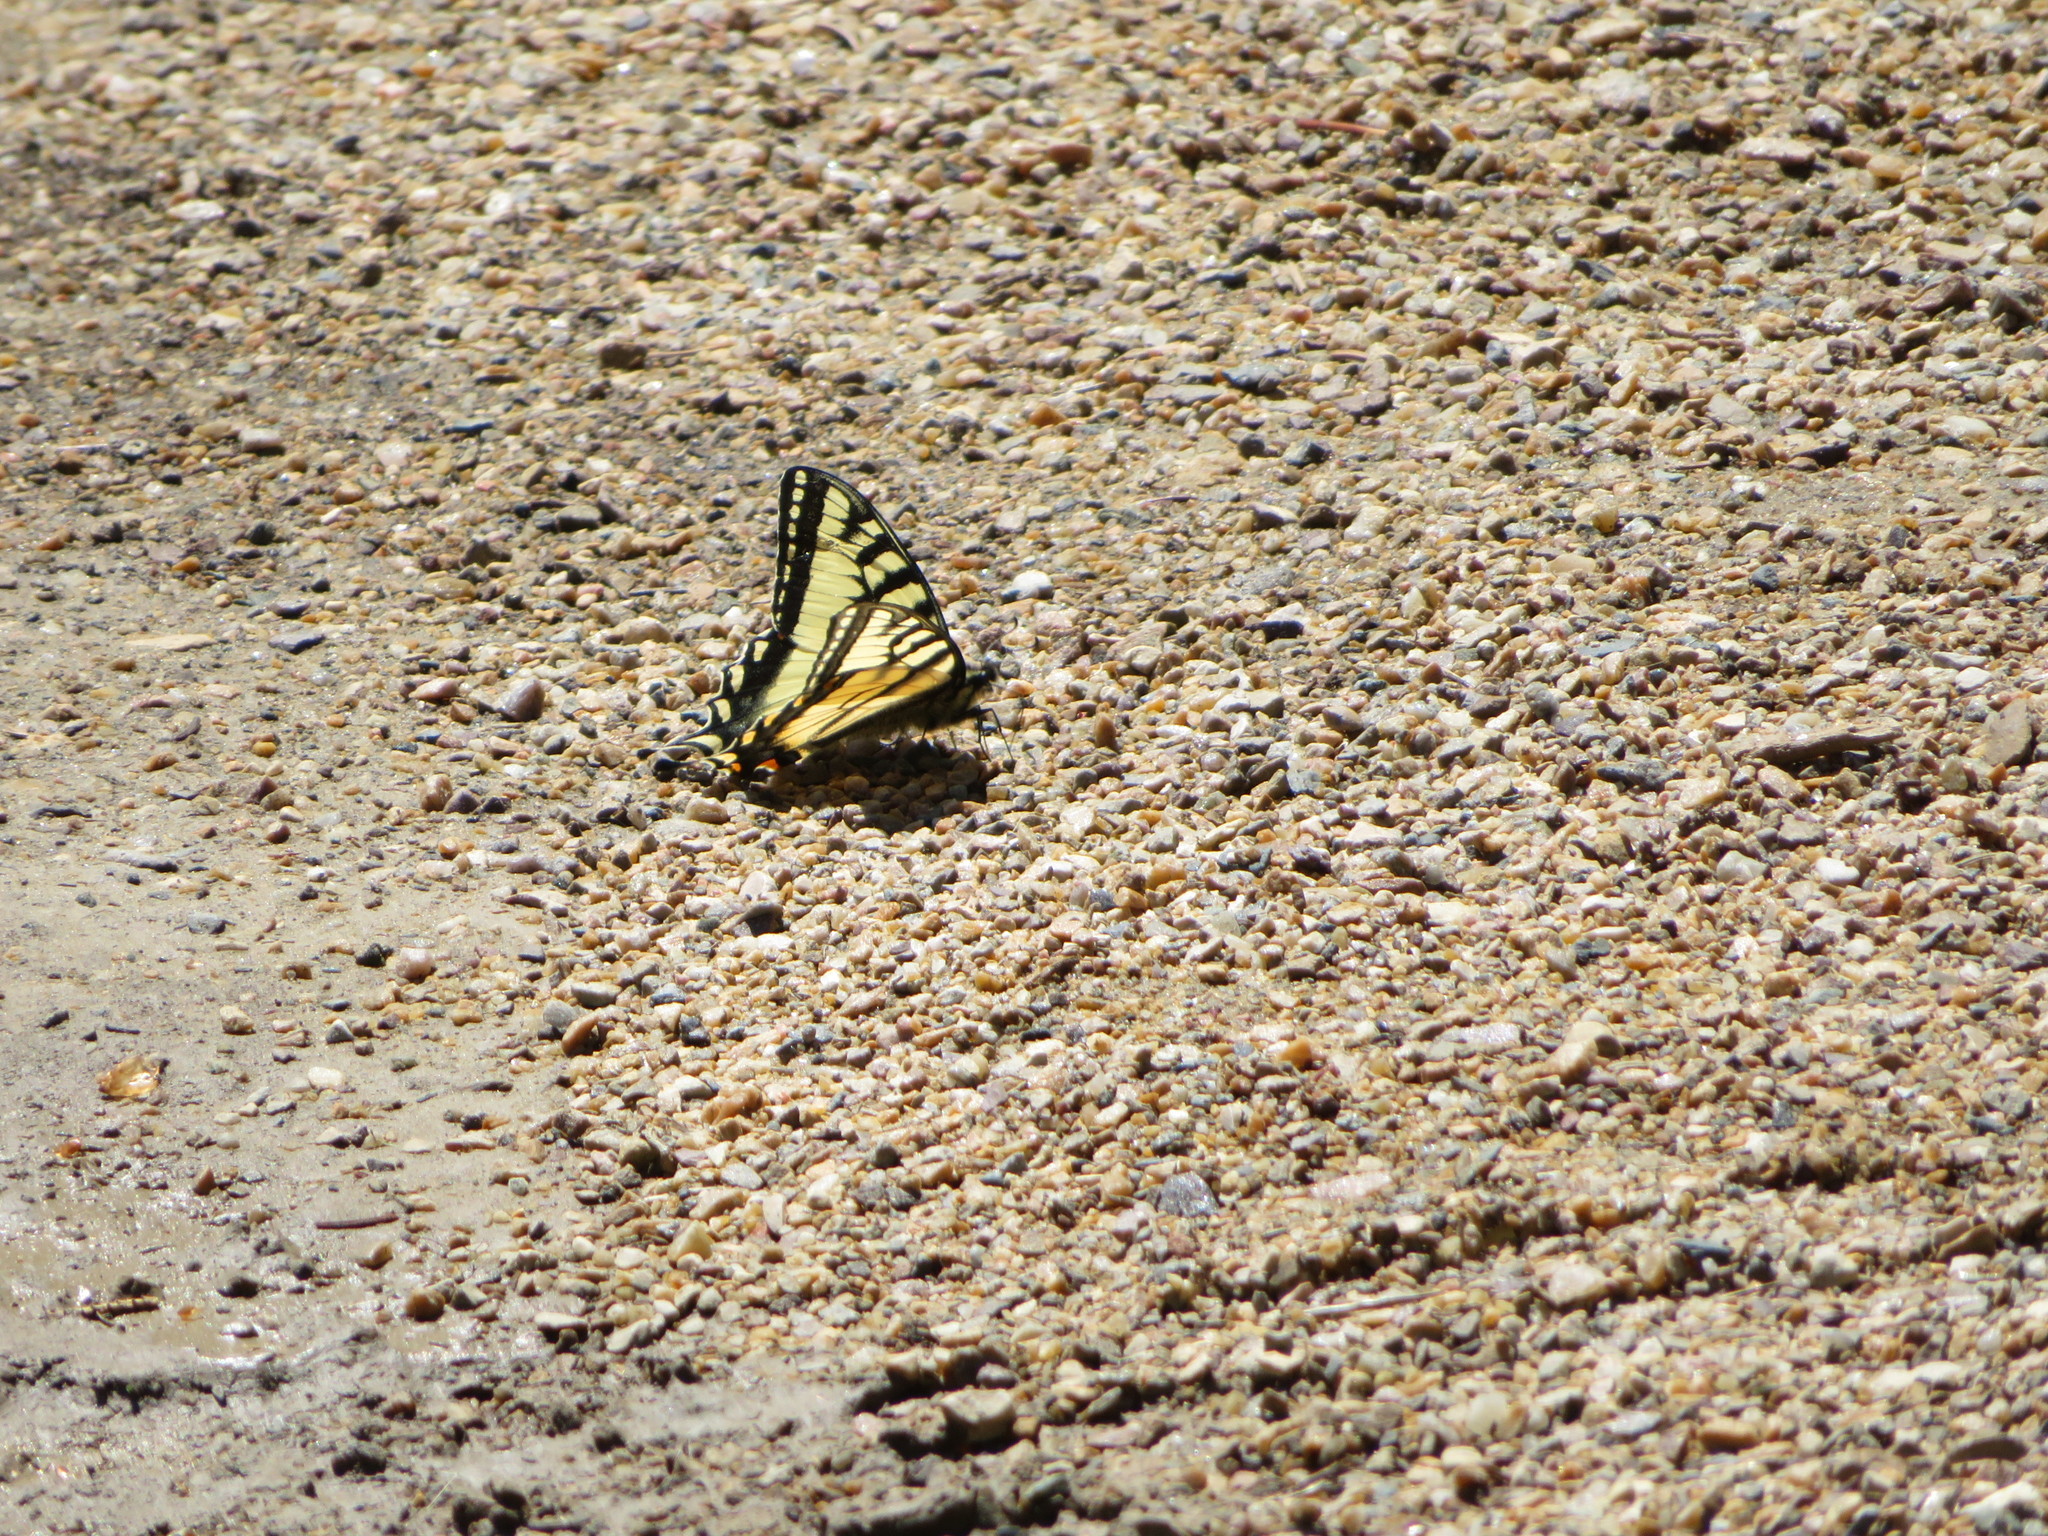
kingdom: Animalia
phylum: Arthropoda
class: Insecta
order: Lepidoptera
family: Papilionidae
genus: Papilio
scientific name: Papilio canadensis
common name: Canadian tiger swallowtail
